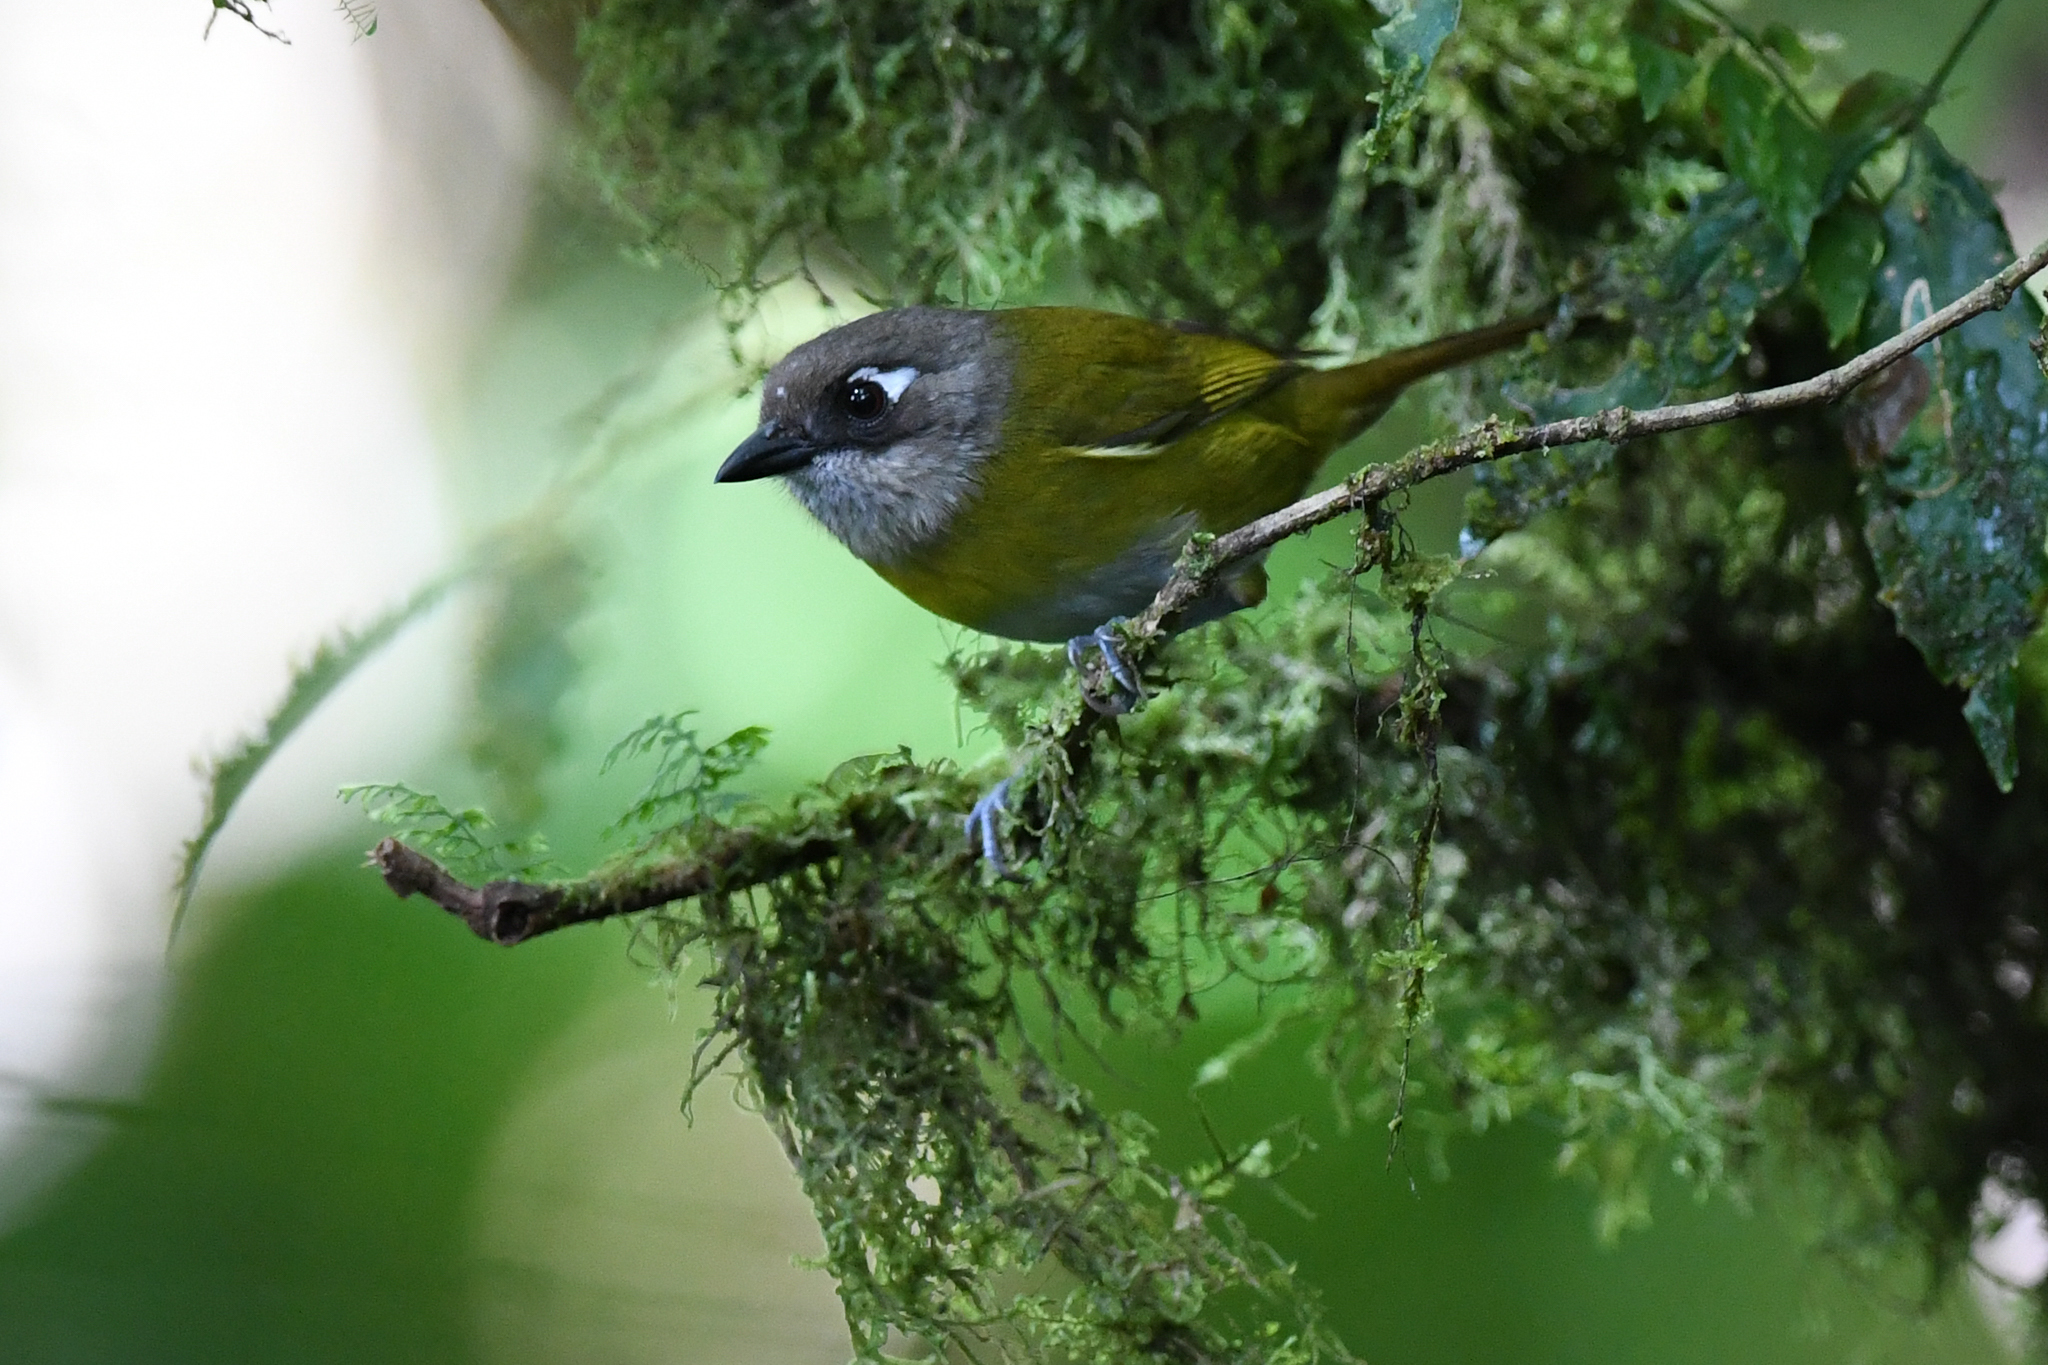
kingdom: Animalia
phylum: Chordata
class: Aves
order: Passeriformes
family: Passerellidae
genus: Chlorospingus
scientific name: Chlorospingus flavopectus
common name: Common chlorospingus
